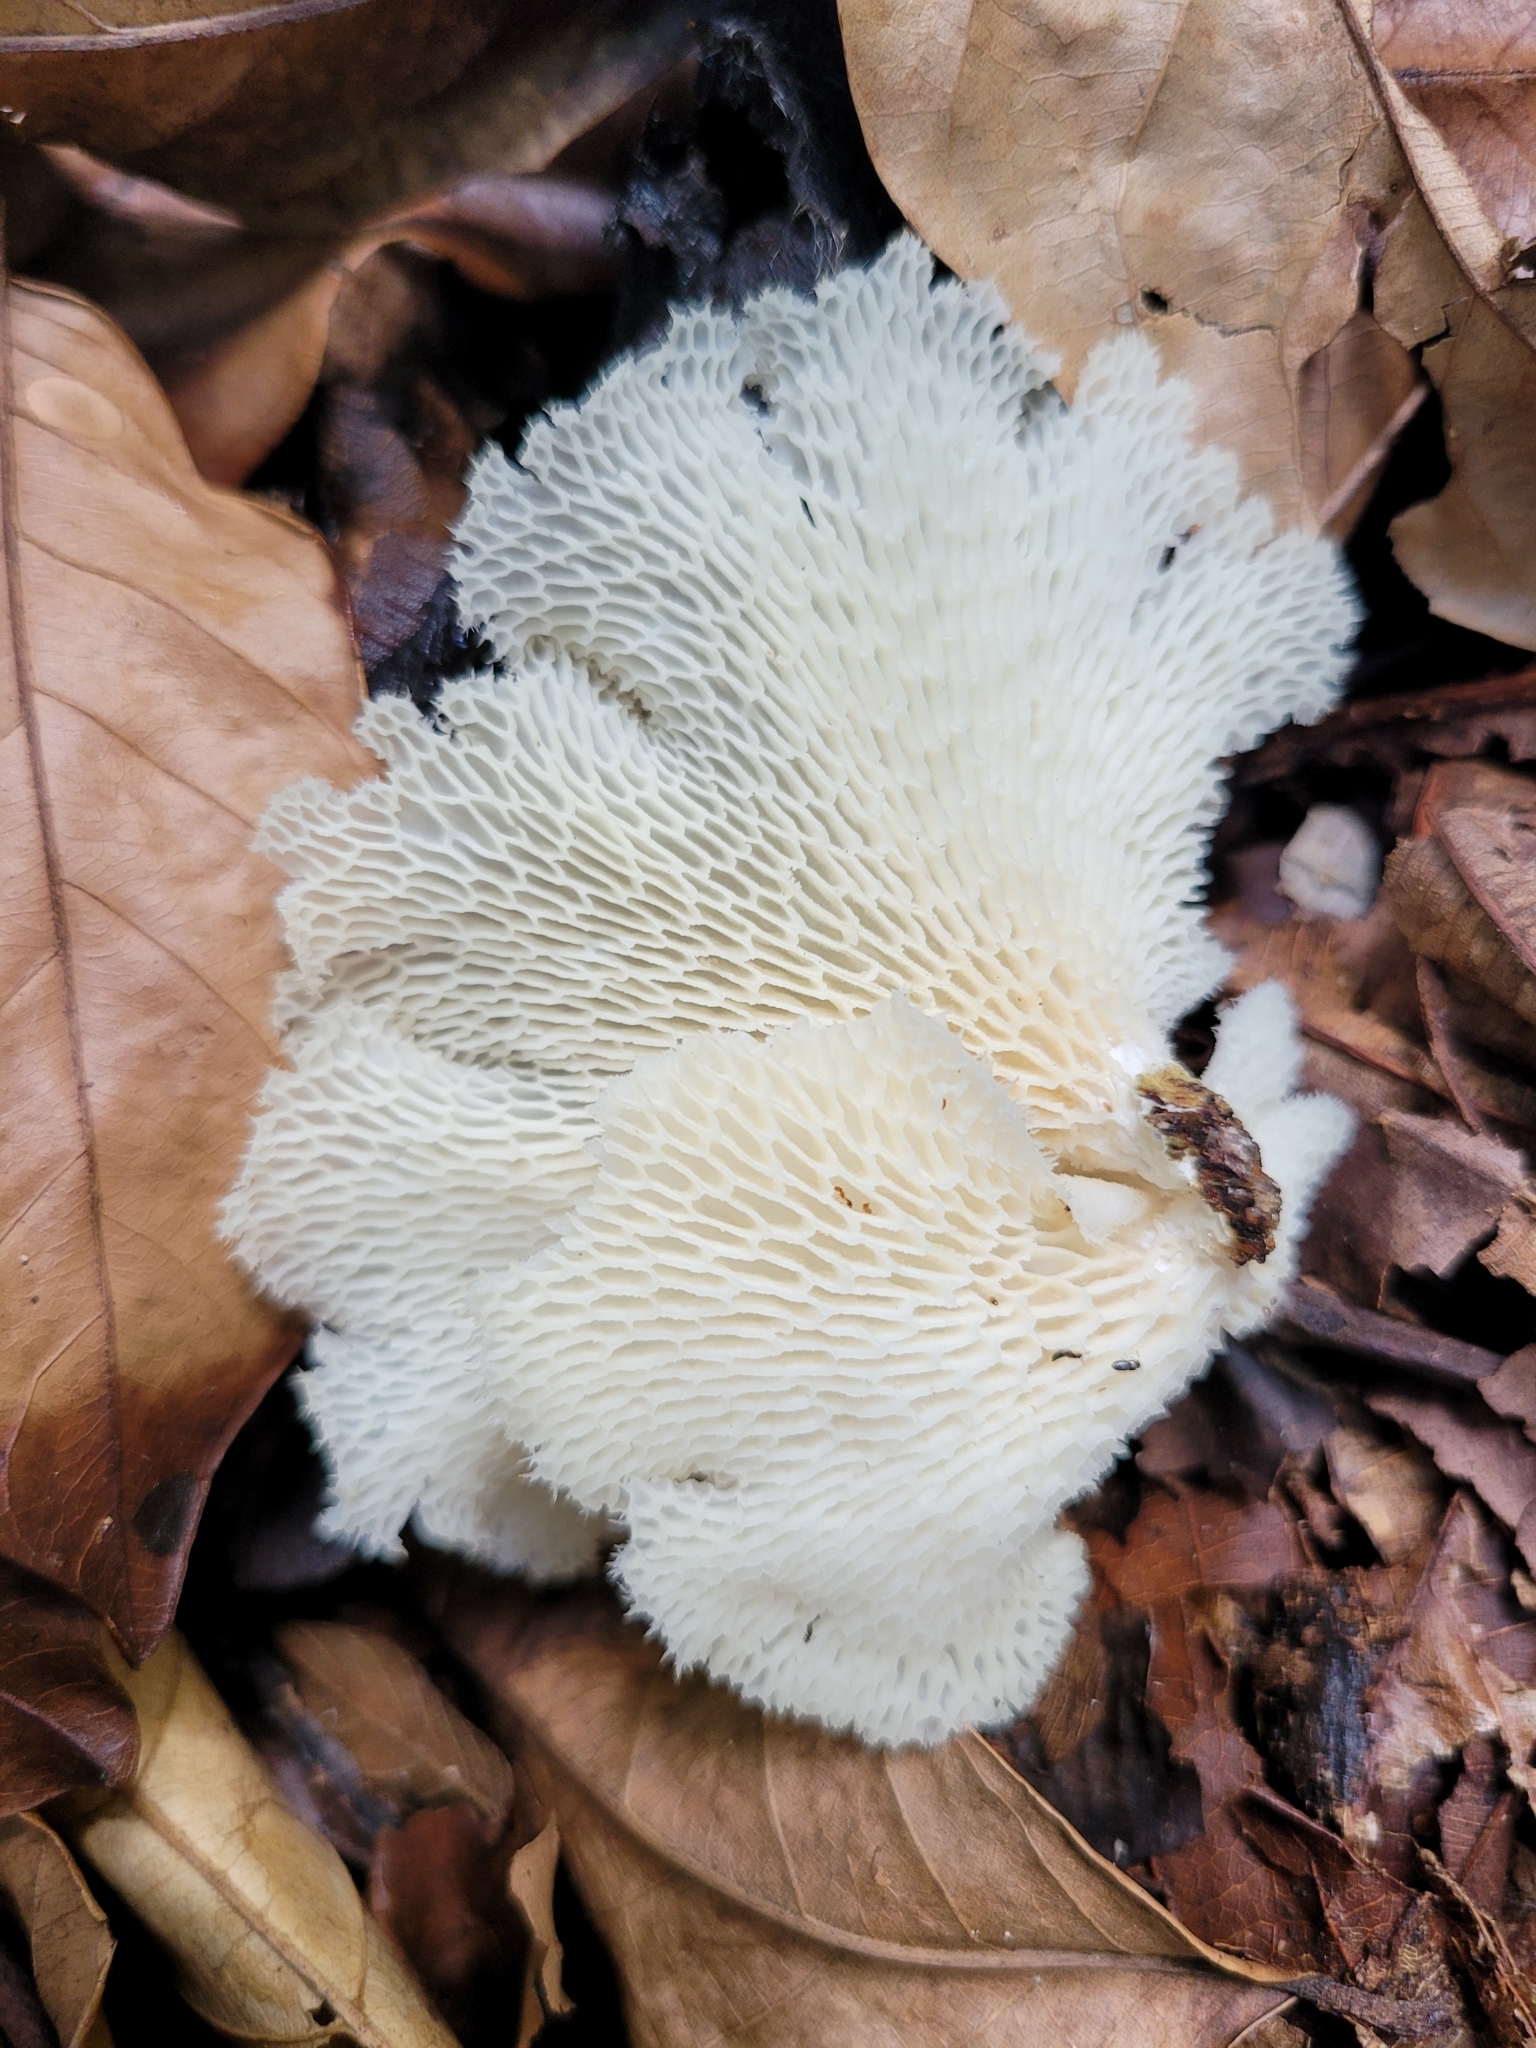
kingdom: Fungi
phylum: Basidiomycota
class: Agaricomycetes
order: Polyporales
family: Polyporaceae
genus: Favolus
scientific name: Favolus tenuiculus
